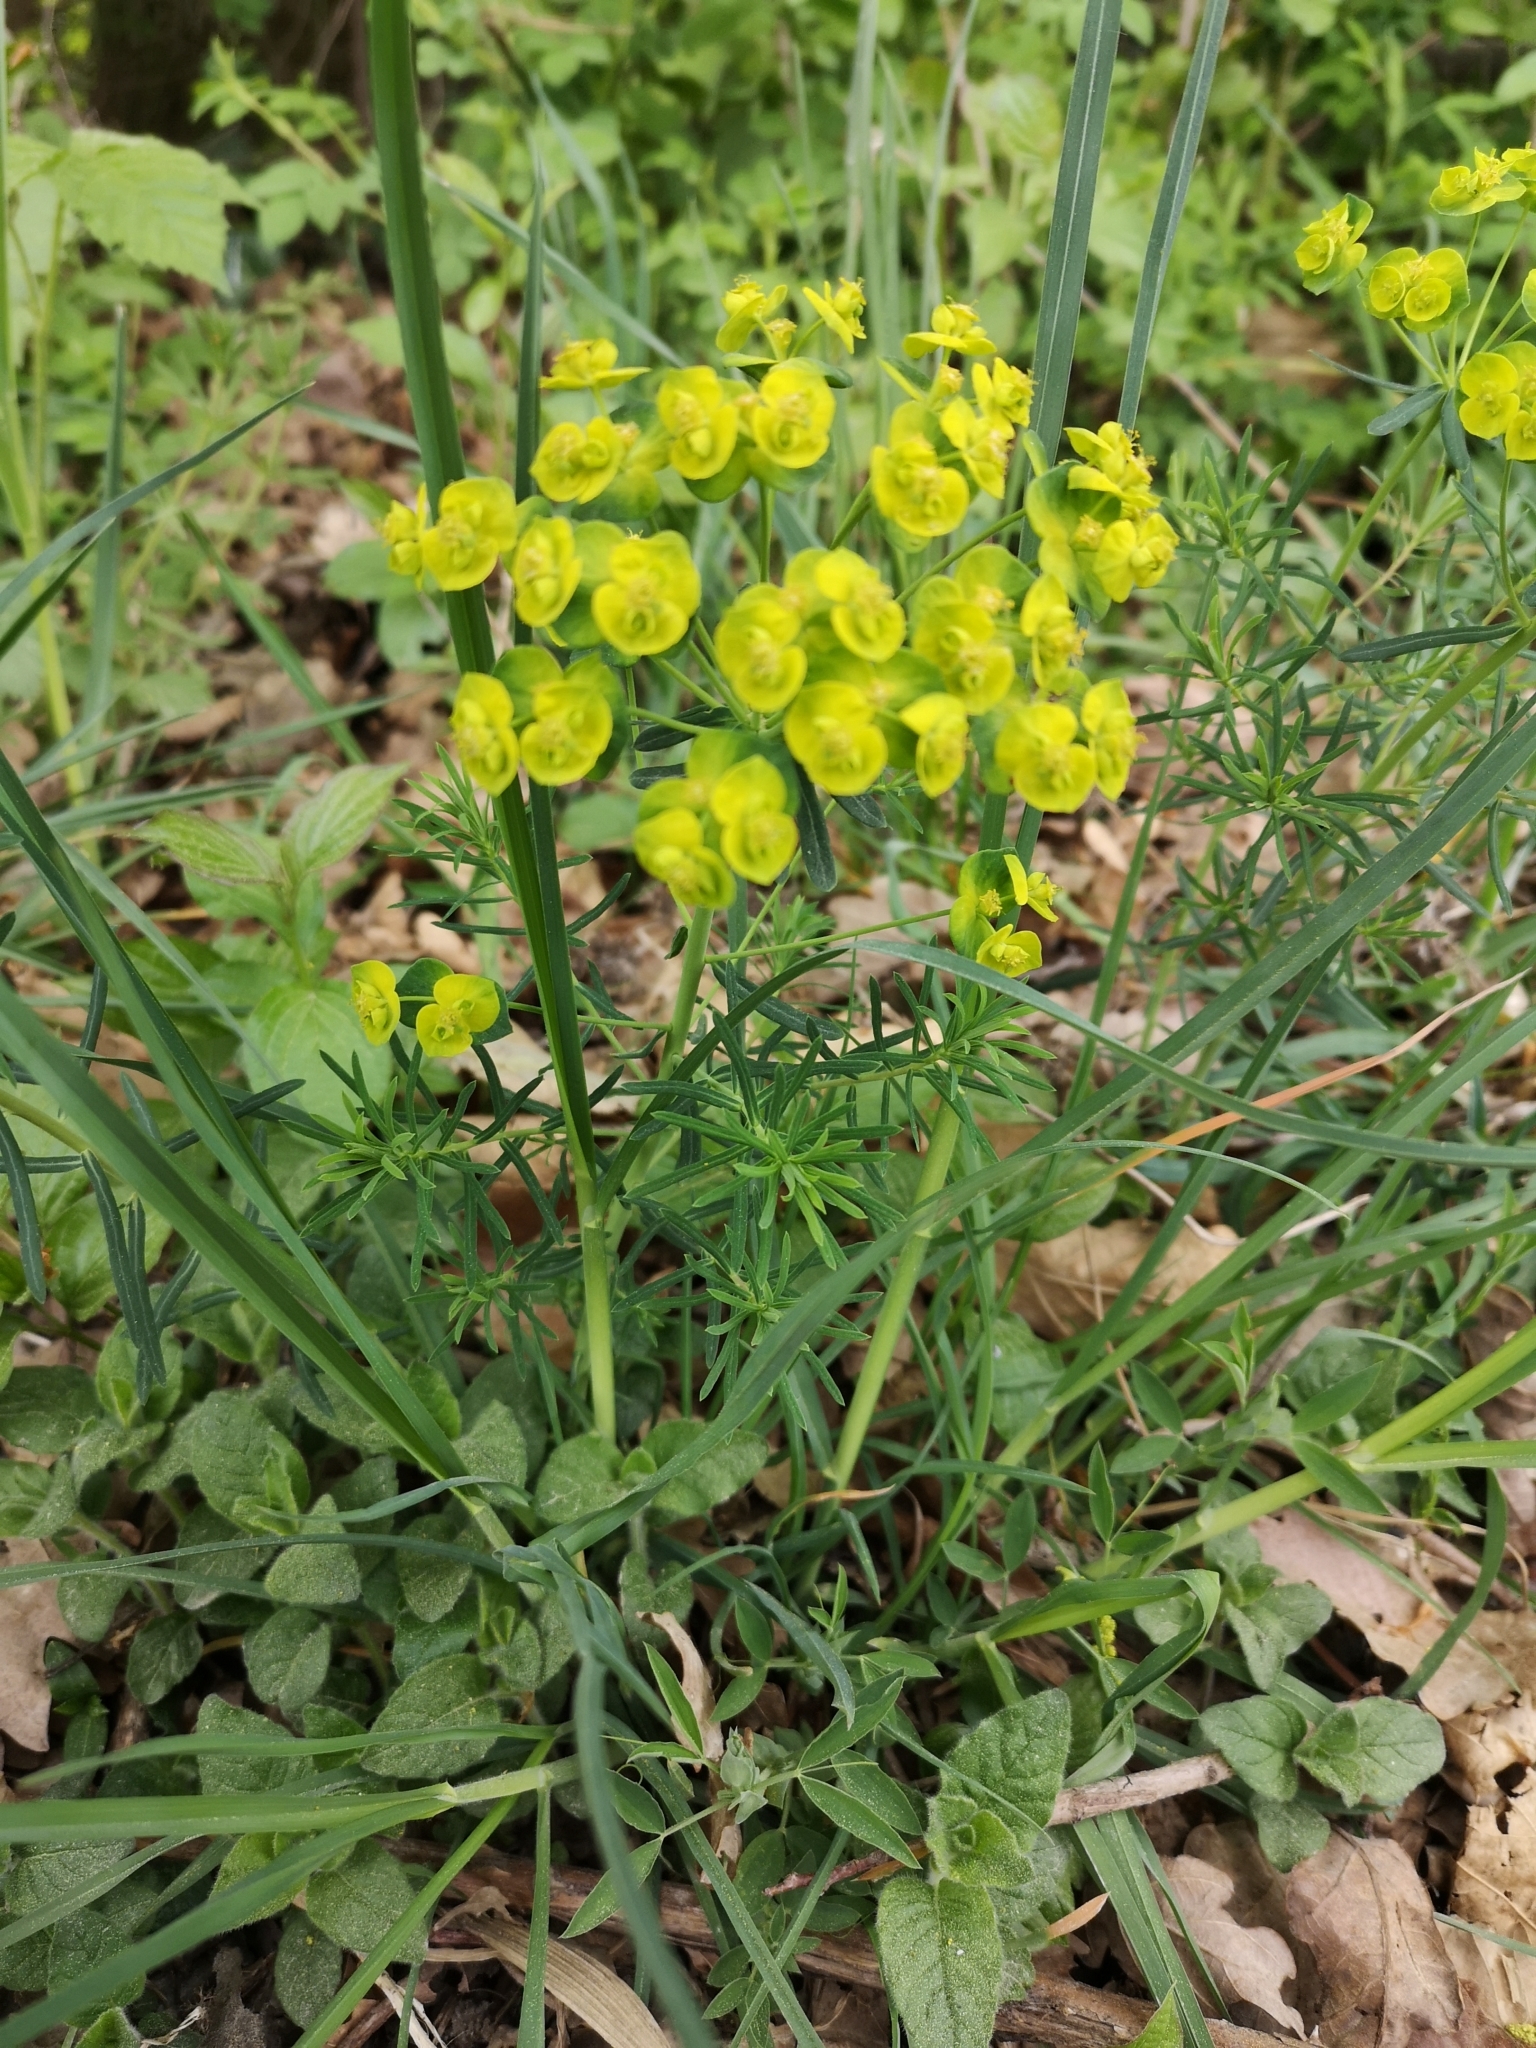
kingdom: Plantae
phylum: Tracheophyta
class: Magnoliopsida
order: Malpighiales
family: Euphorbiaceae
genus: Euphorbia
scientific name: Euphorbia cyparissias
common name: Cypress spurge
